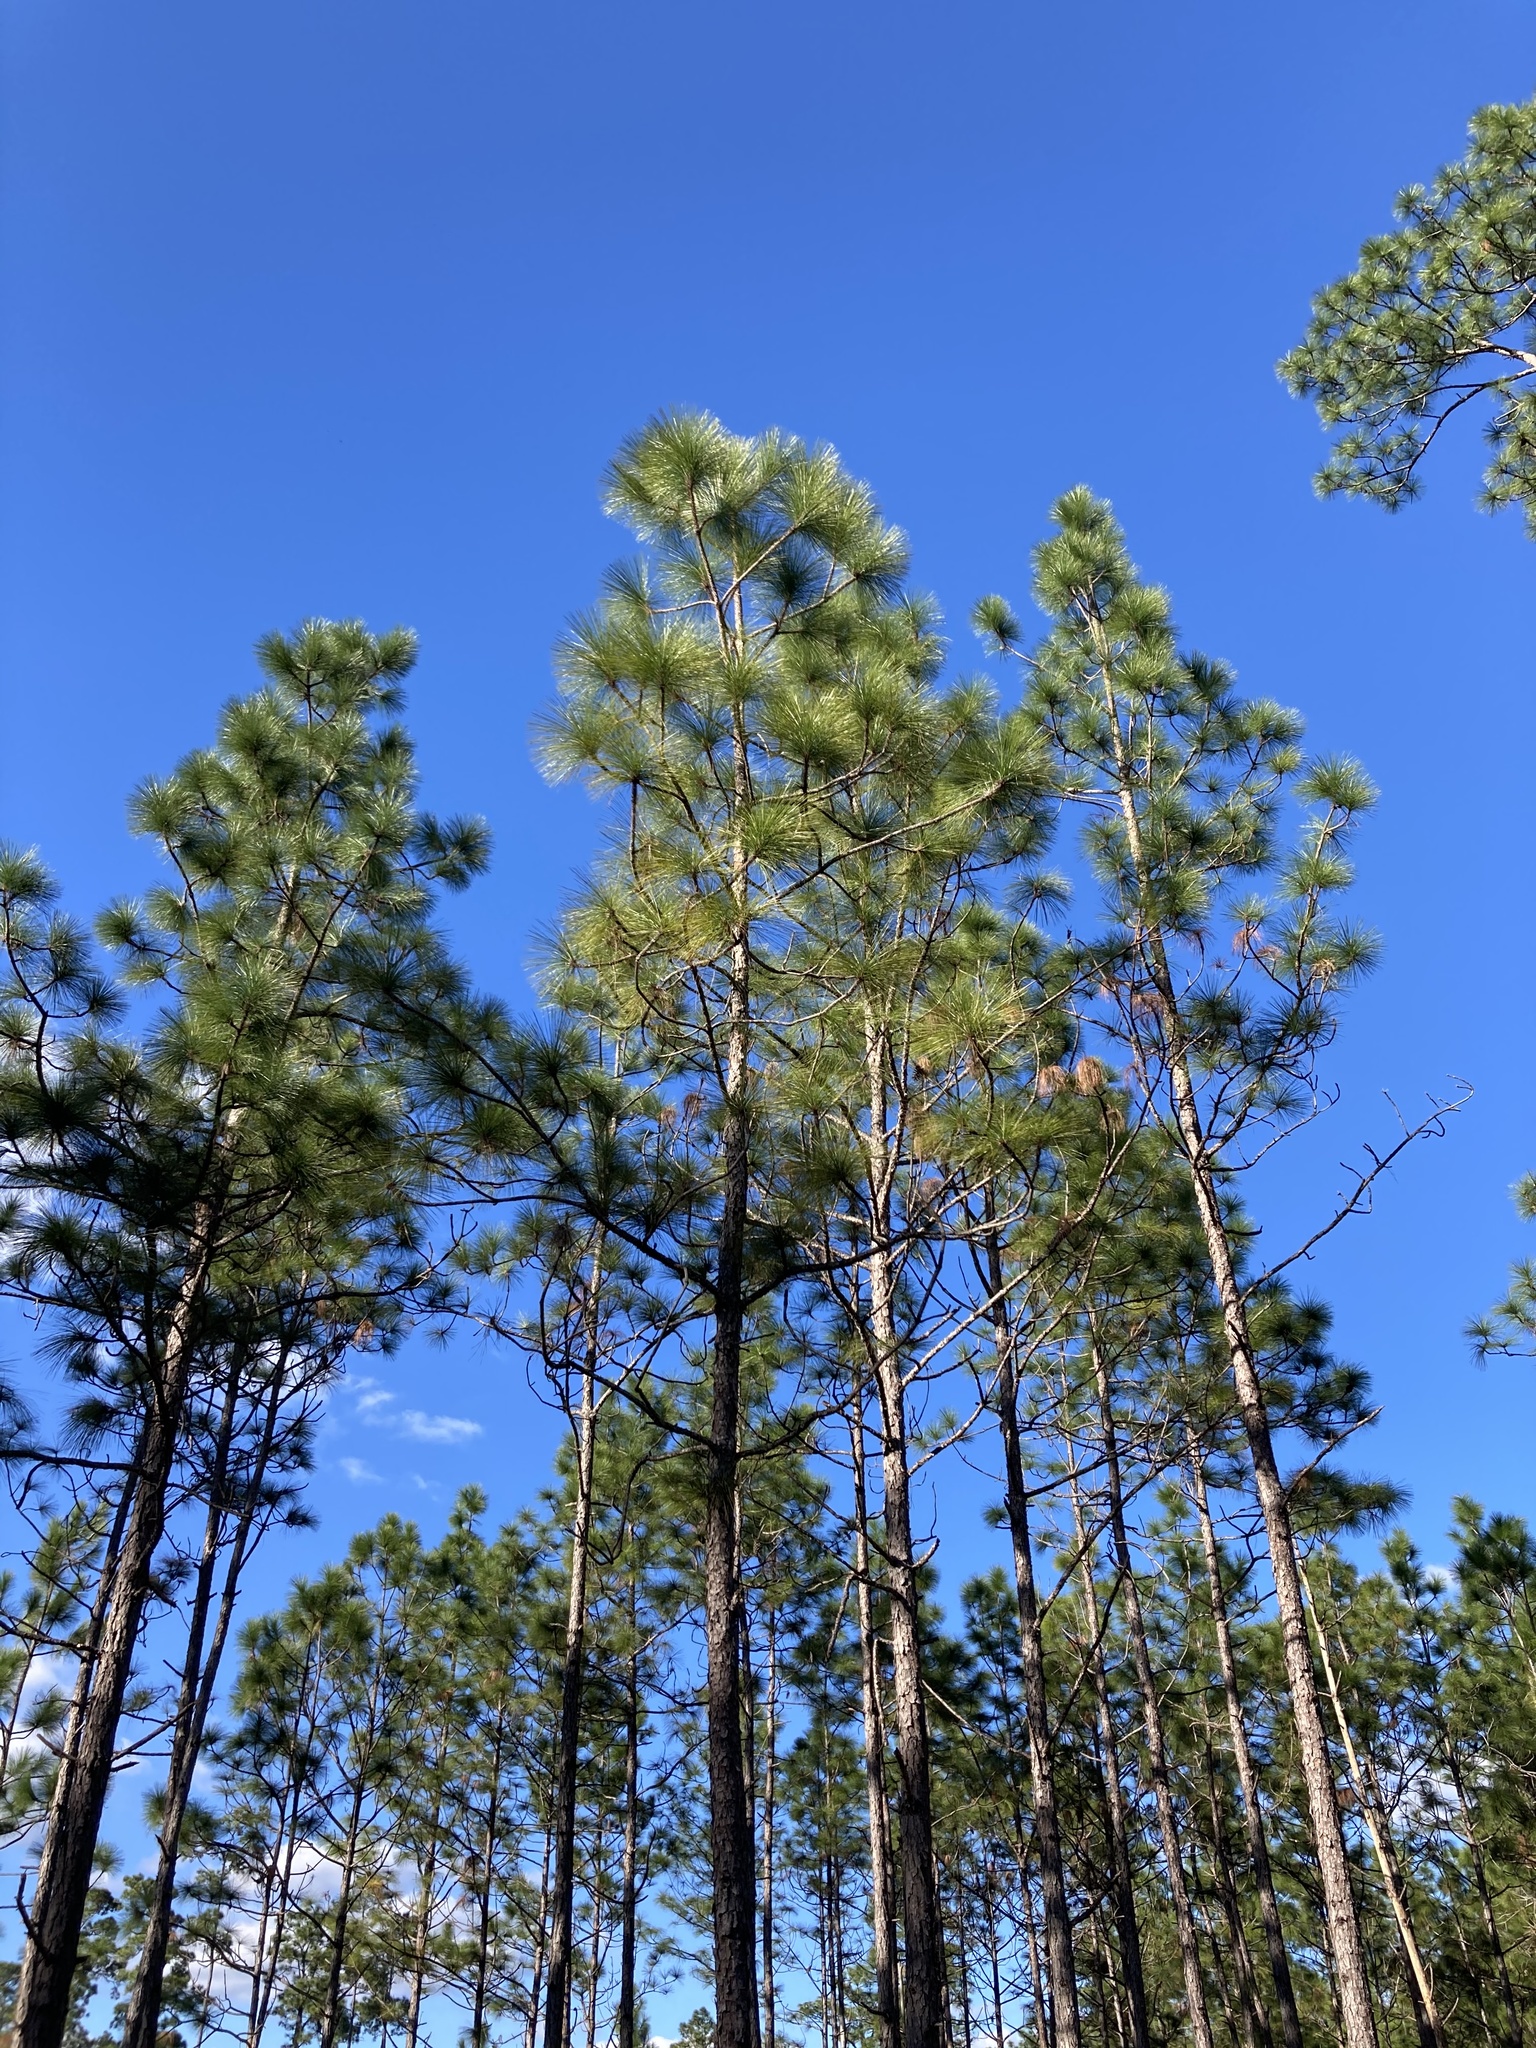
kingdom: Plantae
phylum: Tracheophyta
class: Pinopsida
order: Pinales
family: Pinaceae
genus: Pinus
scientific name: Pinus palustris
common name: Longleaf pine
